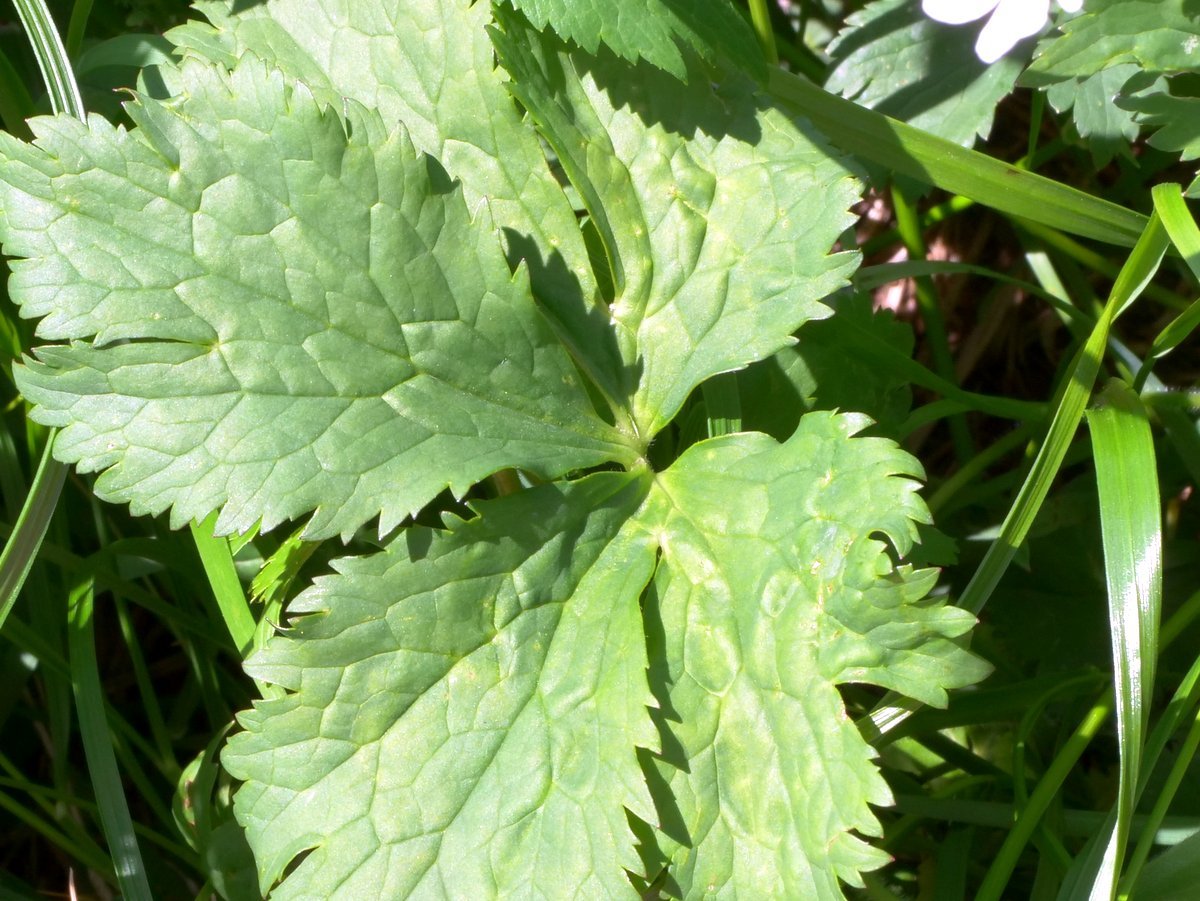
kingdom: Plantae
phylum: Tracheophyta
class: Magnoliopsida
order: Ranunculales
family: Ranunculaceae
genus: Ranunculus
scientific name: Ranunculus aconitifolius
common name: Aconite-leaved buttercup
